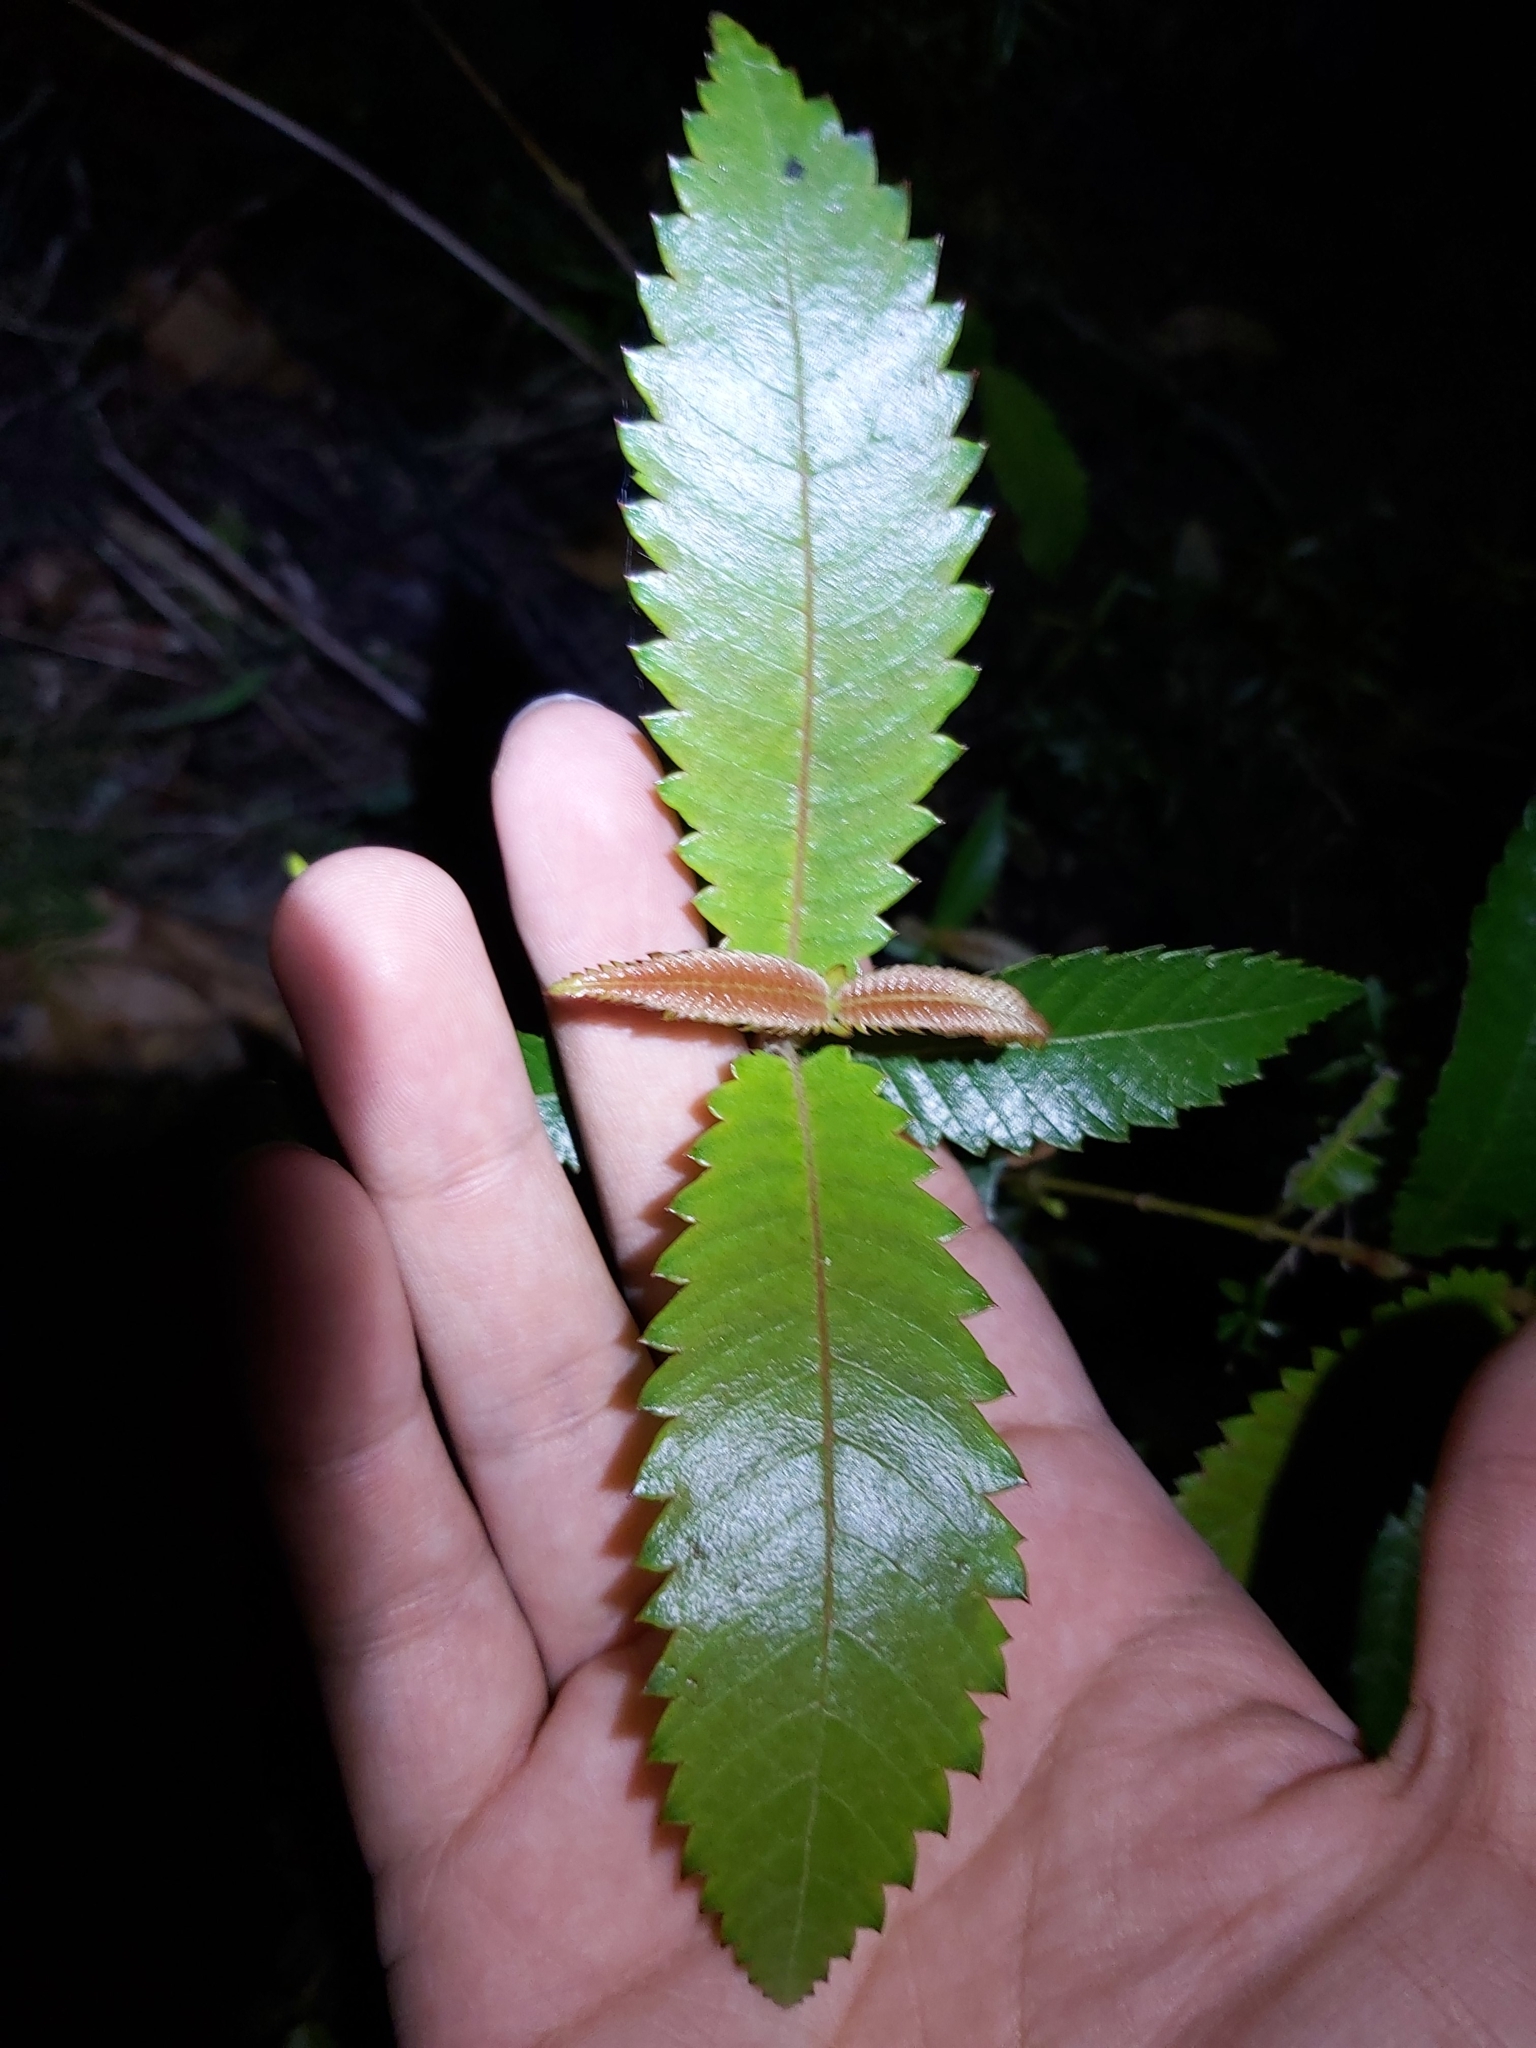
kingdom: Plantae
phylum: Tracheophyta
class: Magnoliopsida
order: Oxalidales
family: Cunoniaceae
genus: Callicoma
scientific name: Callicoma serratifolia
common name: Black wattle
